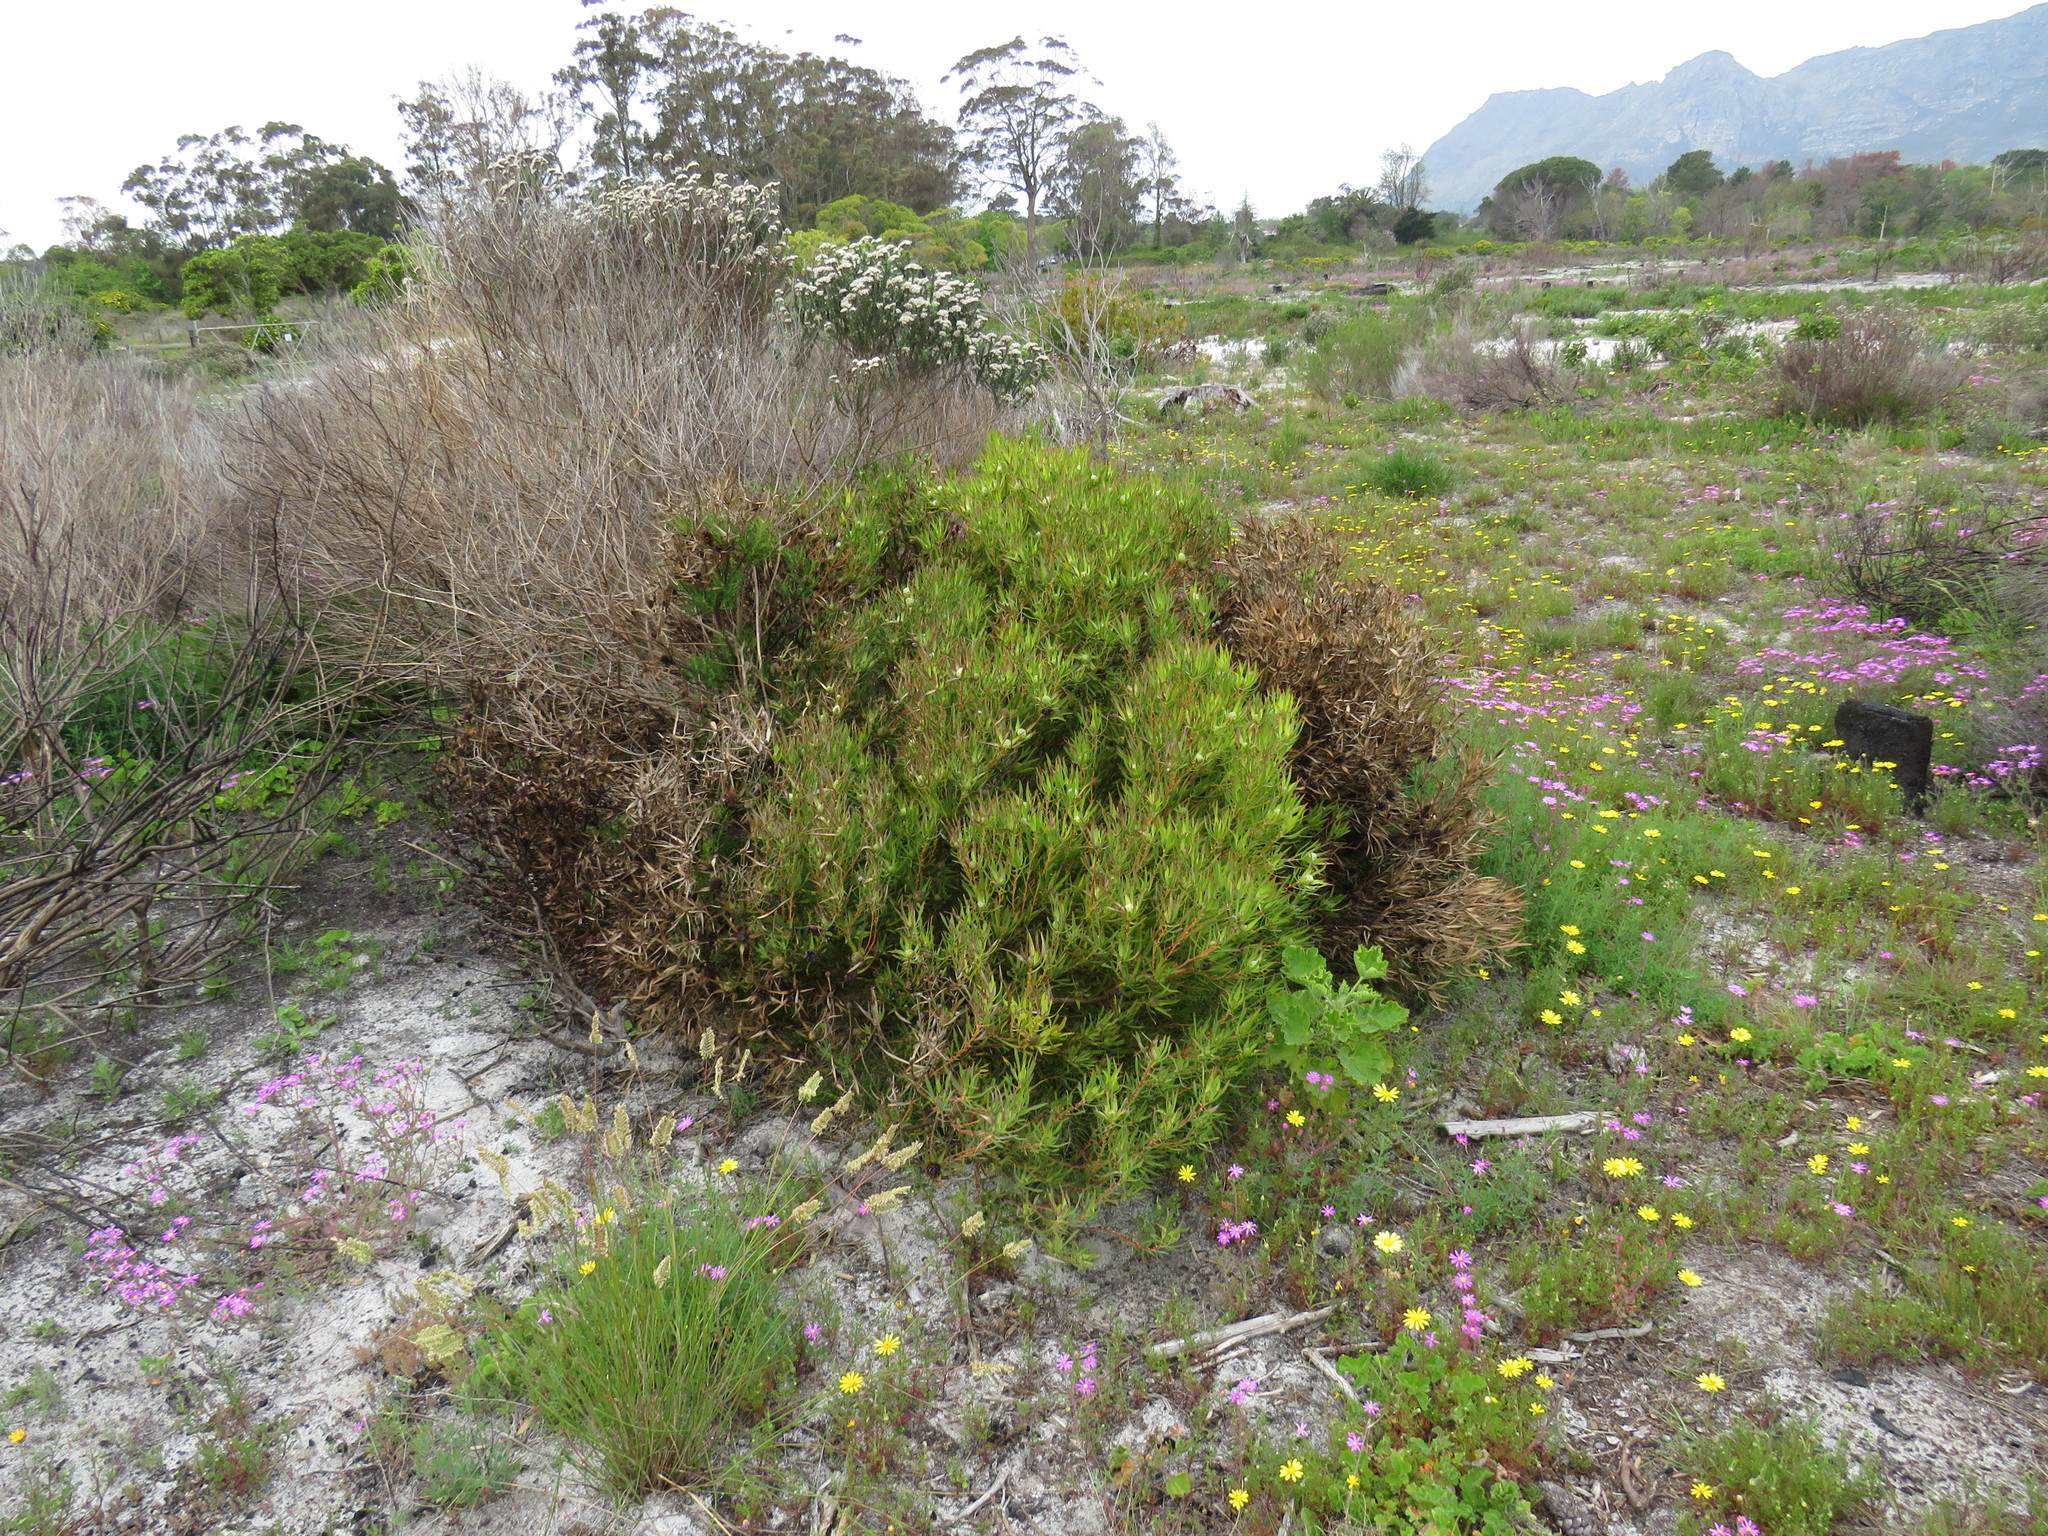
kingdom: Plantae
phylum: Tracheophyta
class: Magnoliopsida
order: Proteales
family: Proteaceae
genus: Leucadendron
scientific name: Leucadendron salignum
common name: Common sunshine conebush
